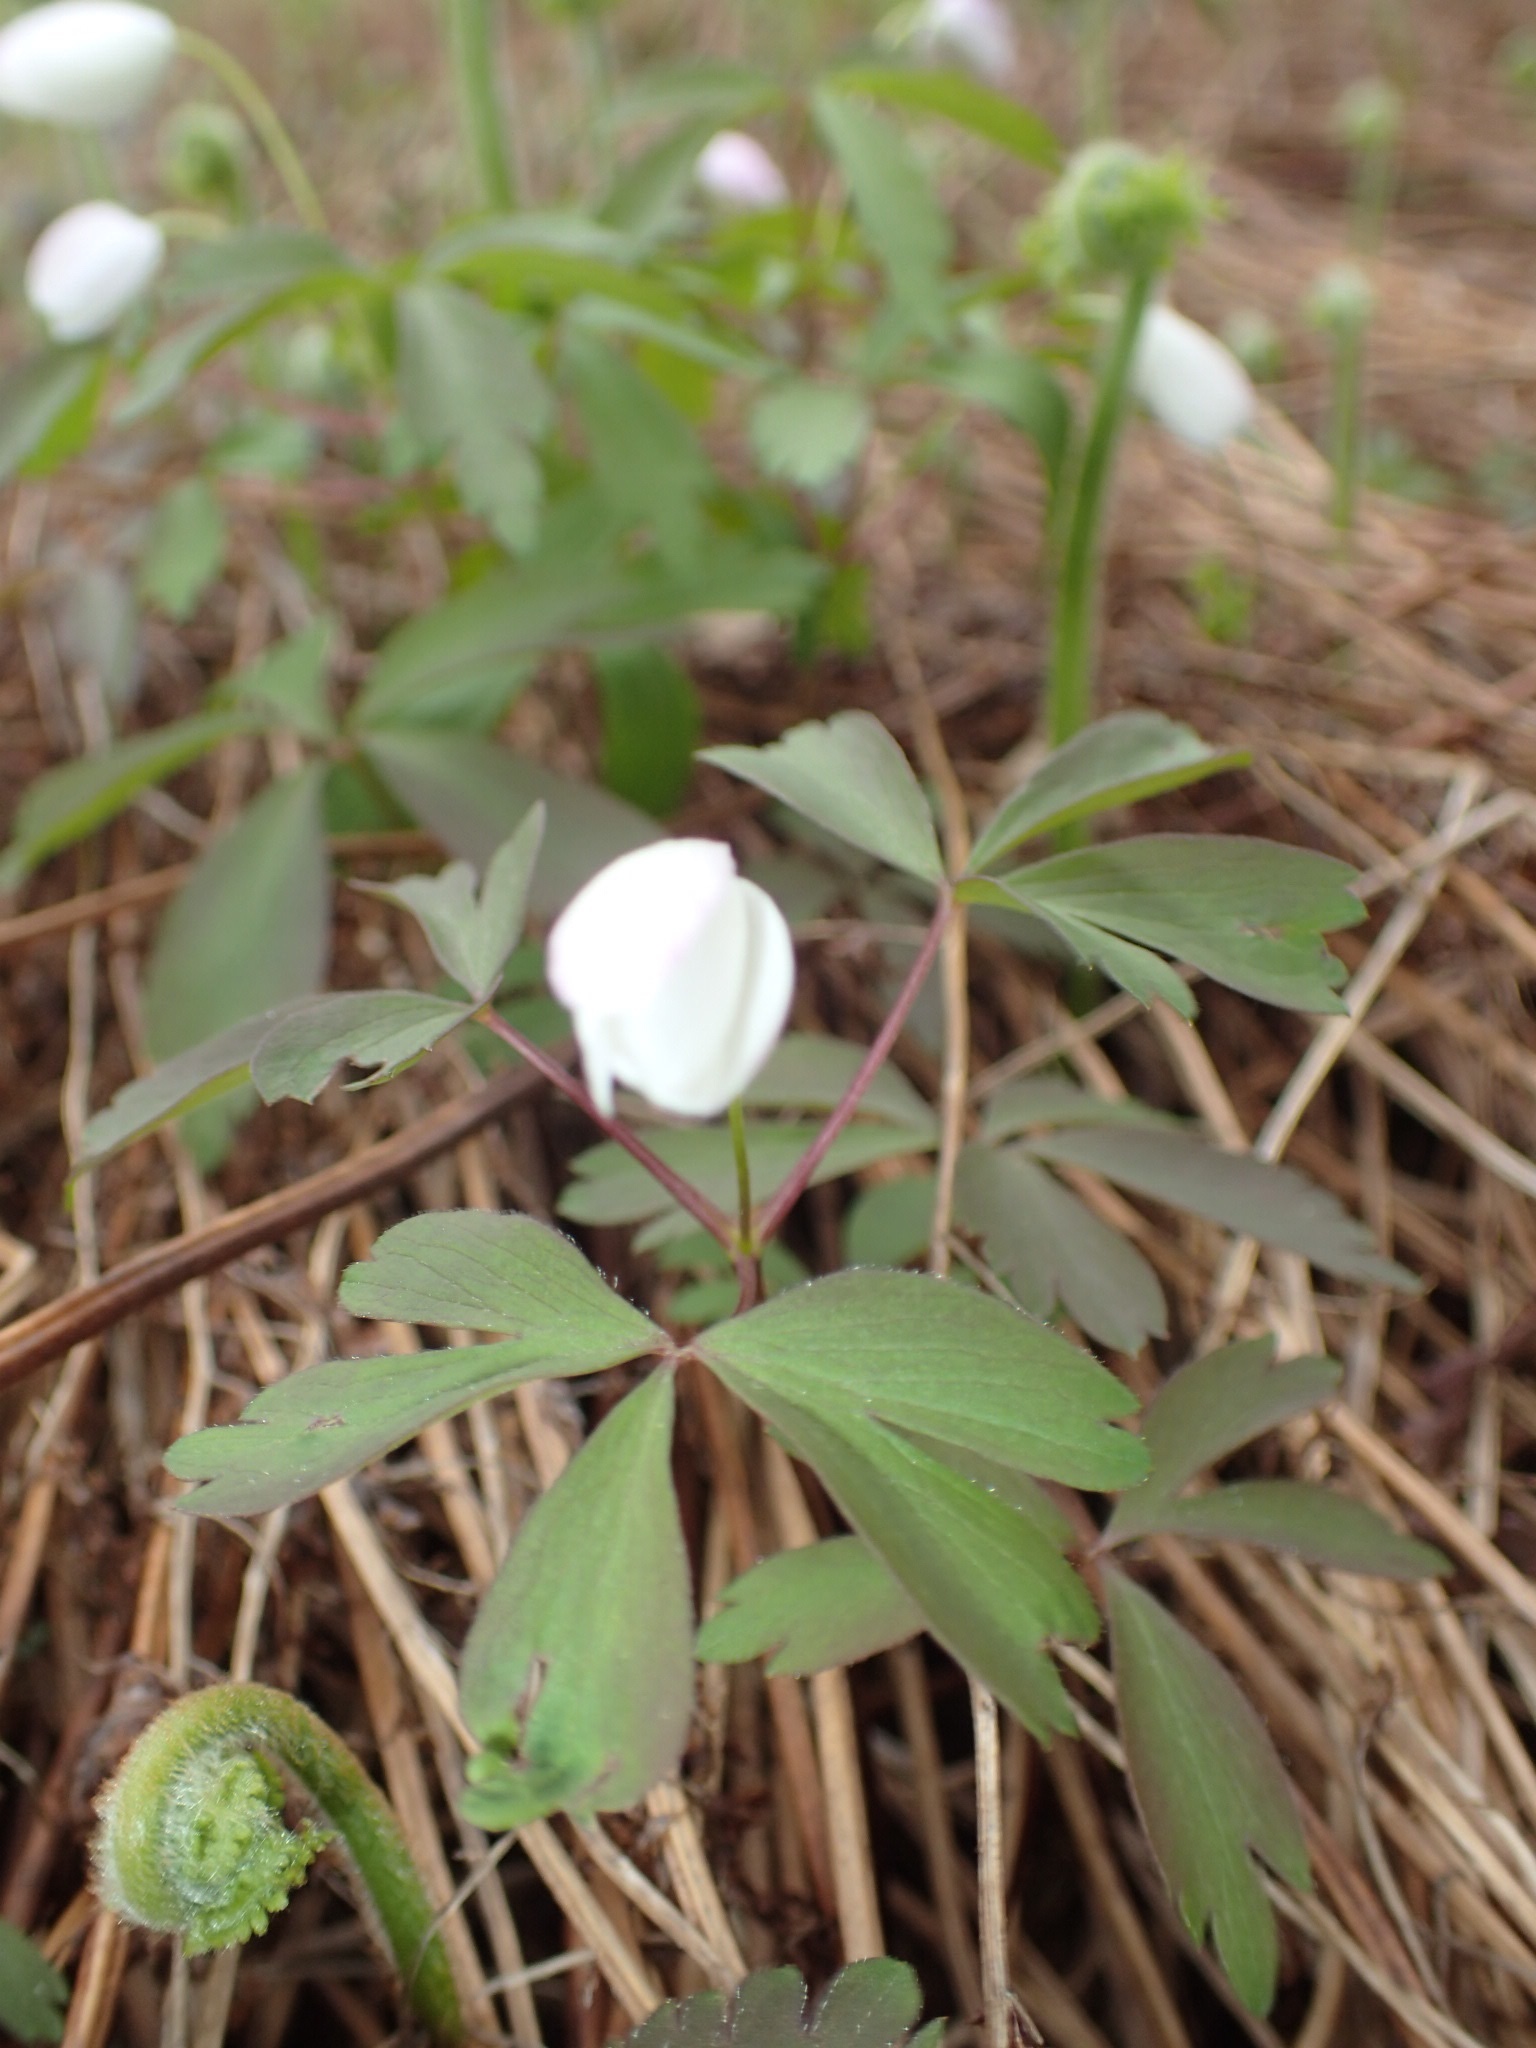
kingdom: Plantae
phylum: Tracheophyta
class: Magnoliopsida
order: Ranunculales
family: Ranunculaceae
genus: Anemone
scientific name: Anemone quinquefolia
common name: Wood anemone
